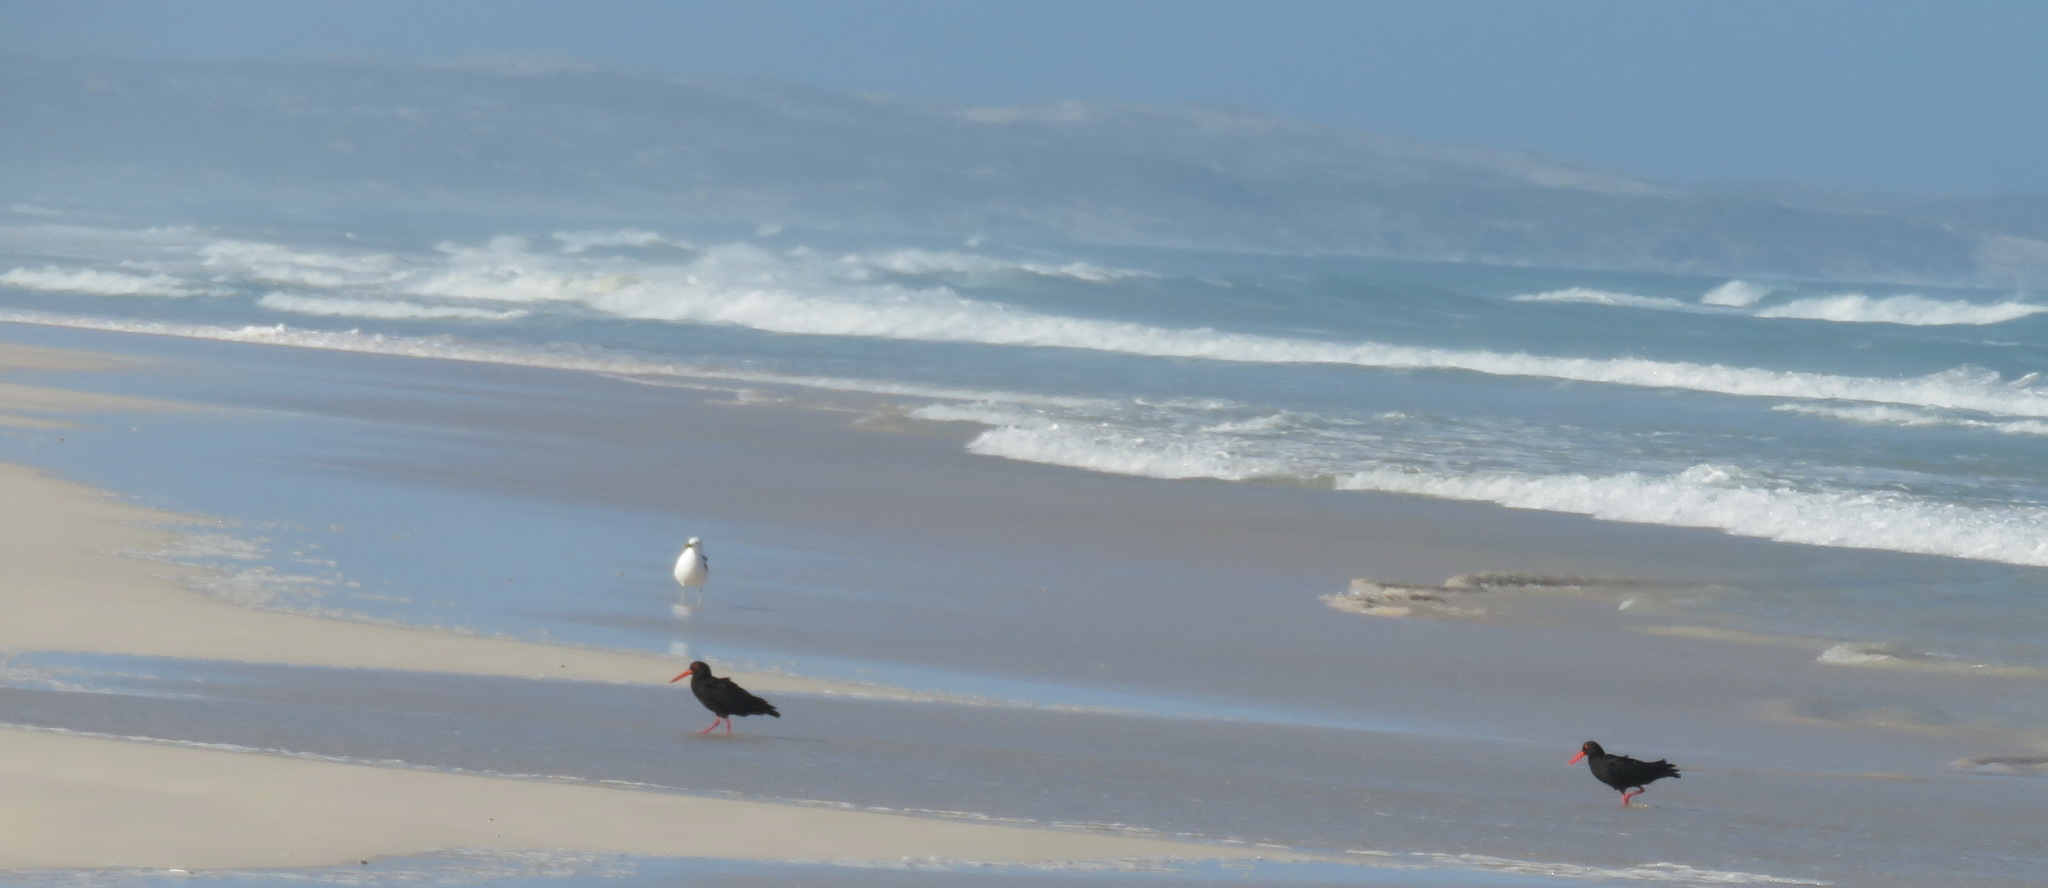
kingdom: Animalia
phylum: Chordata
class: Aves
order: Charadriiformes
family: Haematopodidae
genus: Haematopus
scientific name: Haematopus moquini
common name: African oystercatcher
